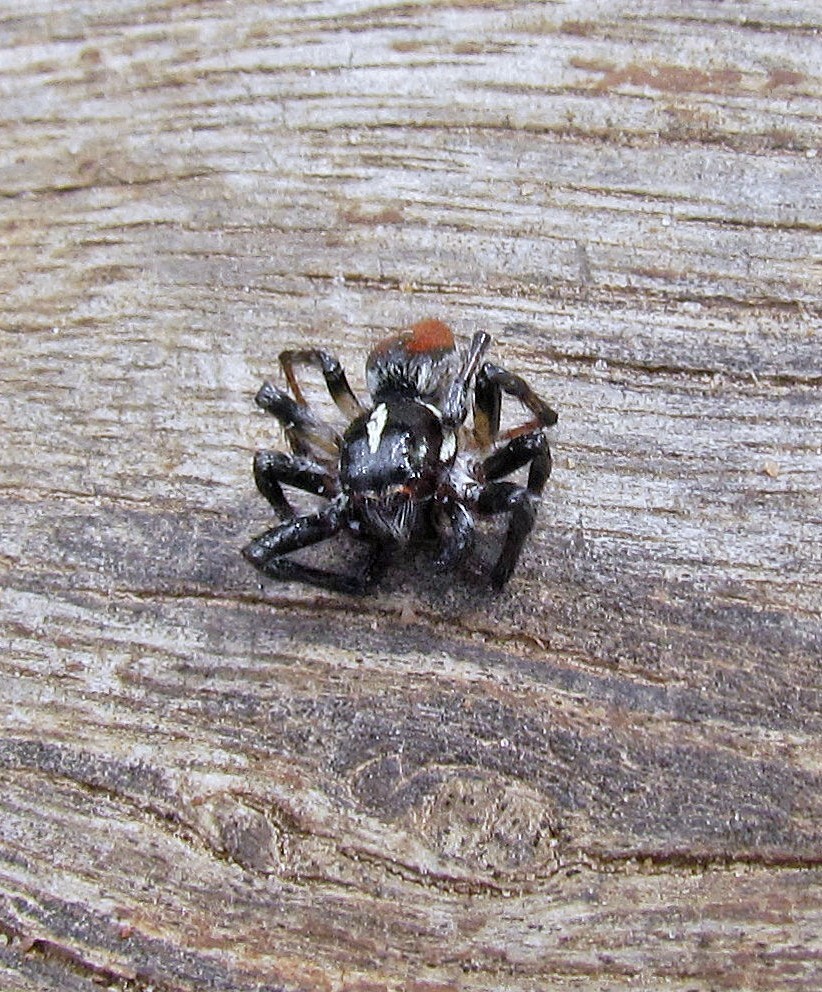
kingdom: Animalia
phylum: Arthropoda
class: Arachnida
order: Araneae
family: Salticidae
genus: Frigga
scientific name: Frigga quintensis
